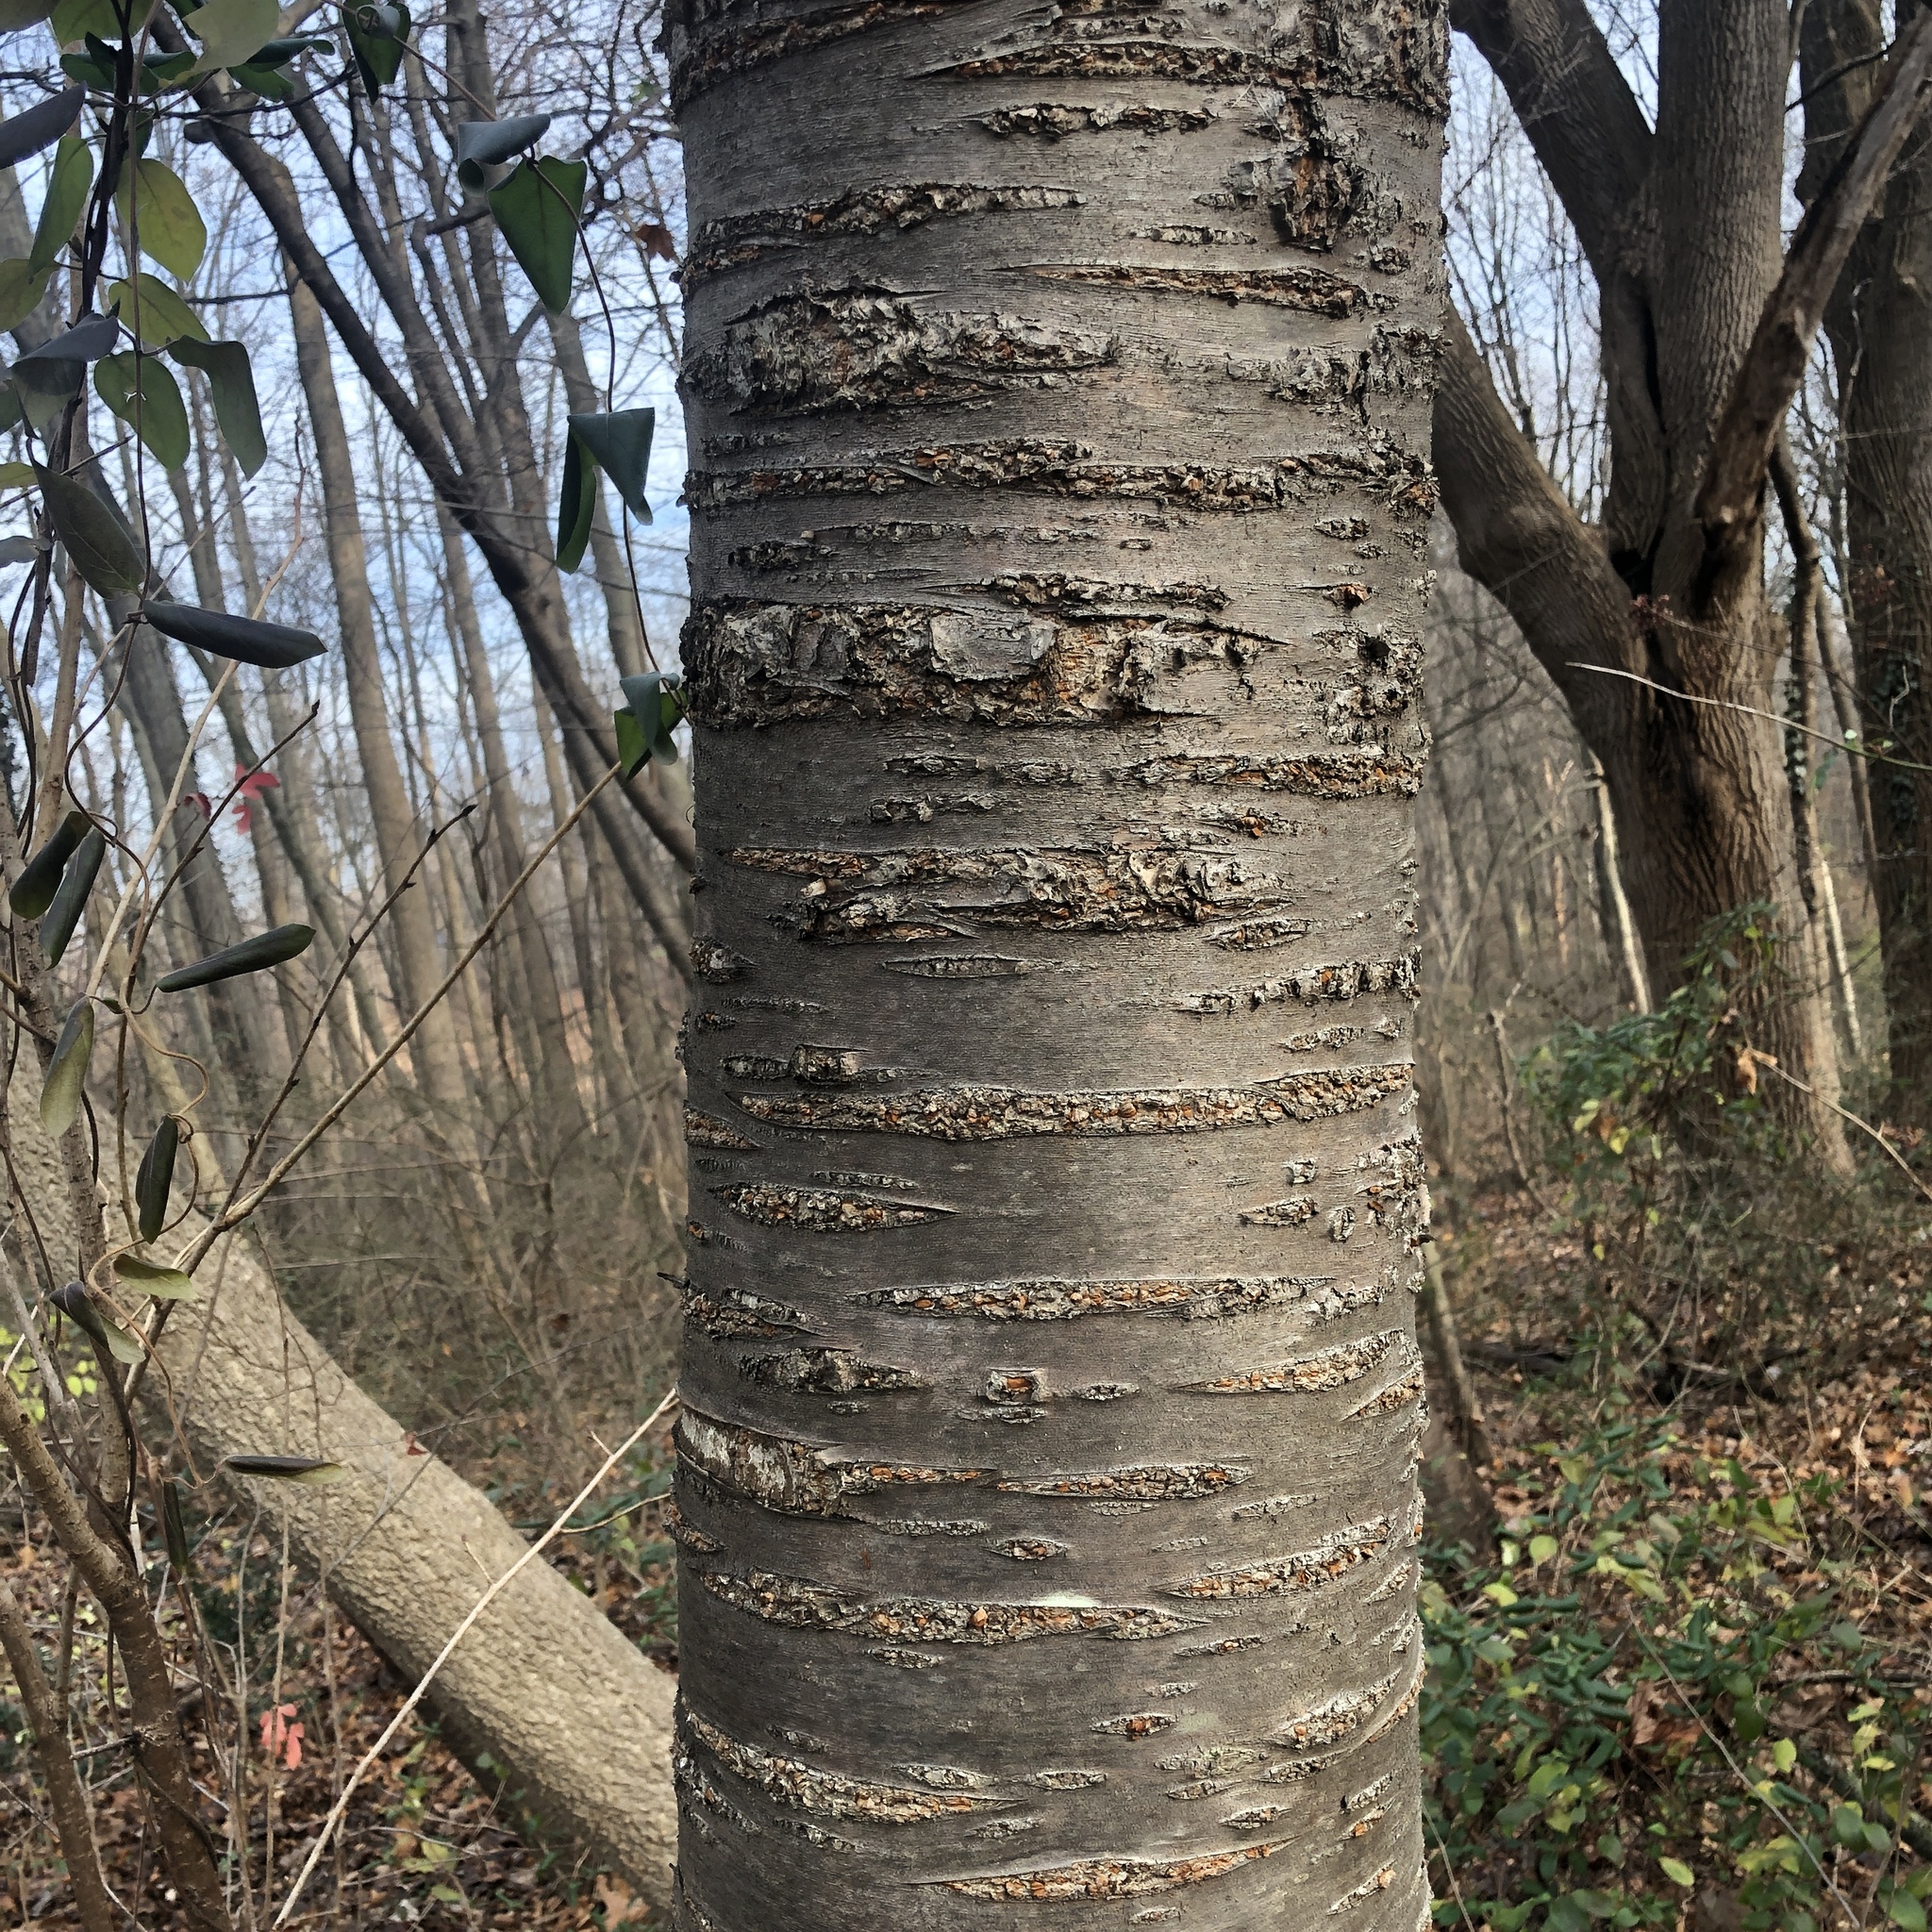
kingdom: Plantae
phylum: Tracheophyta
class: Magnoliopsida
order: Rosales
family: Rosaceae
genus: Prunus
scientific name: Prunus avium
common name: Sweet cherry
